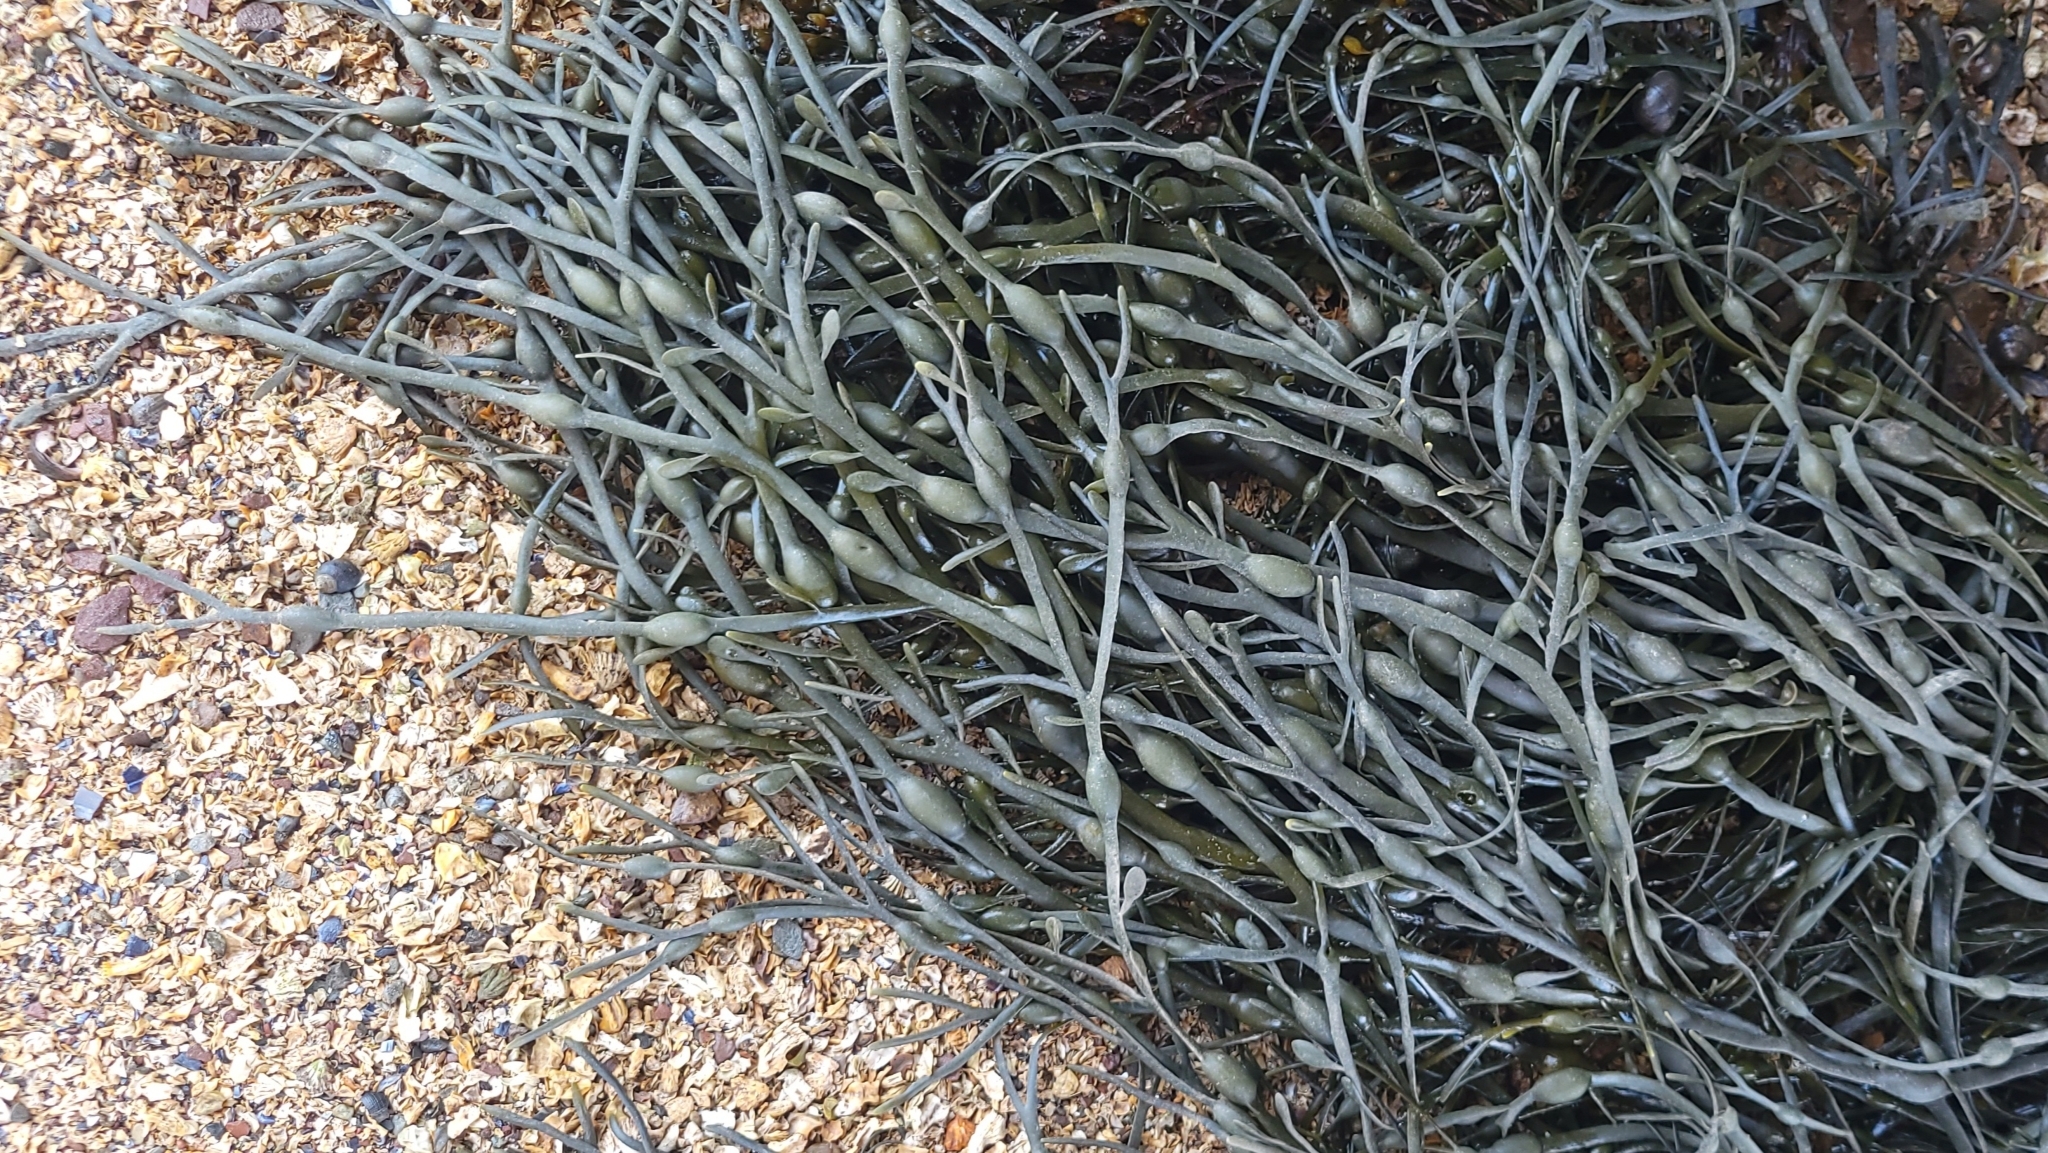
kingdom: Chromista
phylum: Ochrophyta
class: Phaeophyceae
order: Fucales
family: Fucaceae
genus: Ascophyllum
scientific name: Ascophyllum nodosum
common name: Knotted wrack
